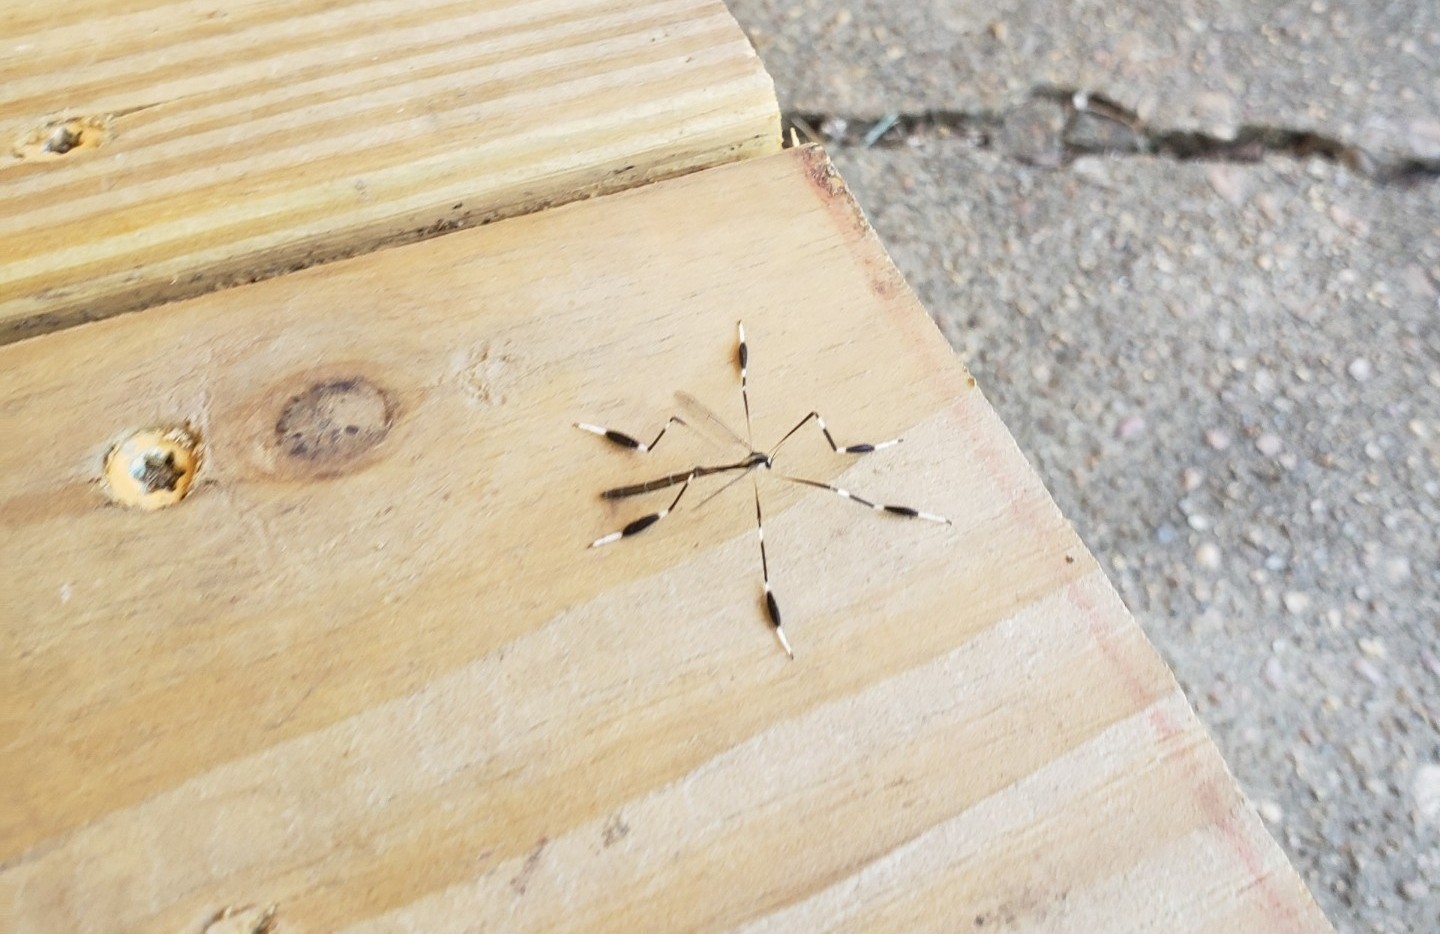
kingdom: Animalia
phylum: Arthropoda
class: Insecta
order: Diptera
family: Ptychopteridae
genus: Bittacomorpha
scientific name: Bittacomorpha clavipes
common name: Eastern phantom crane fly
